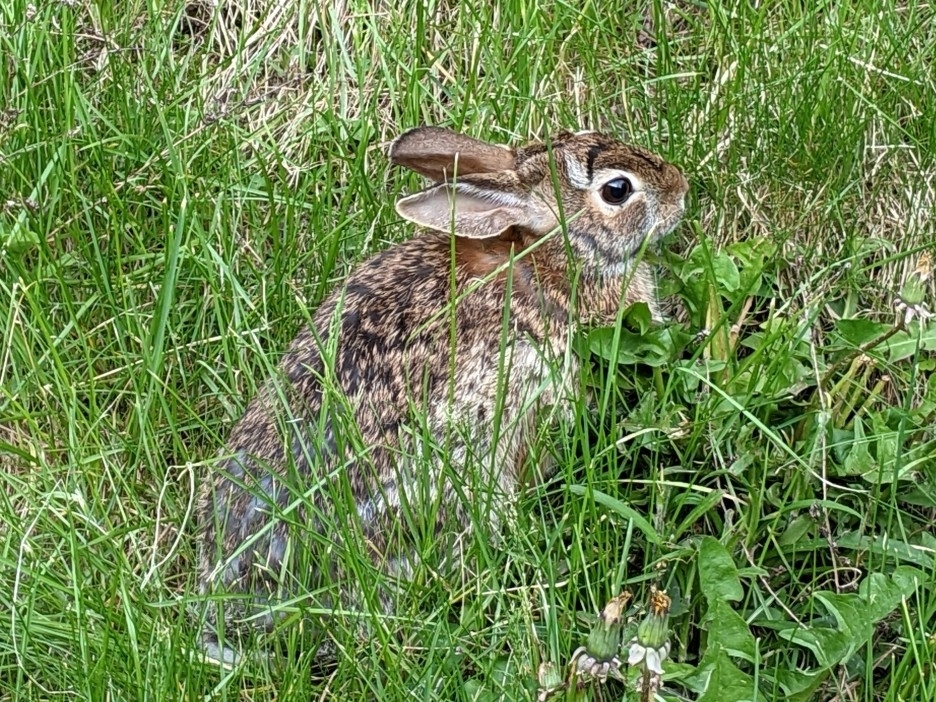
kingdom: Animalia
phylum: Chordata
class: Mammalia
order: Lagomorpha
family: Leporidae
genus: Sylvilagus
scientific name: Sylvilagus floridanus
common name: Eastern cottontail
